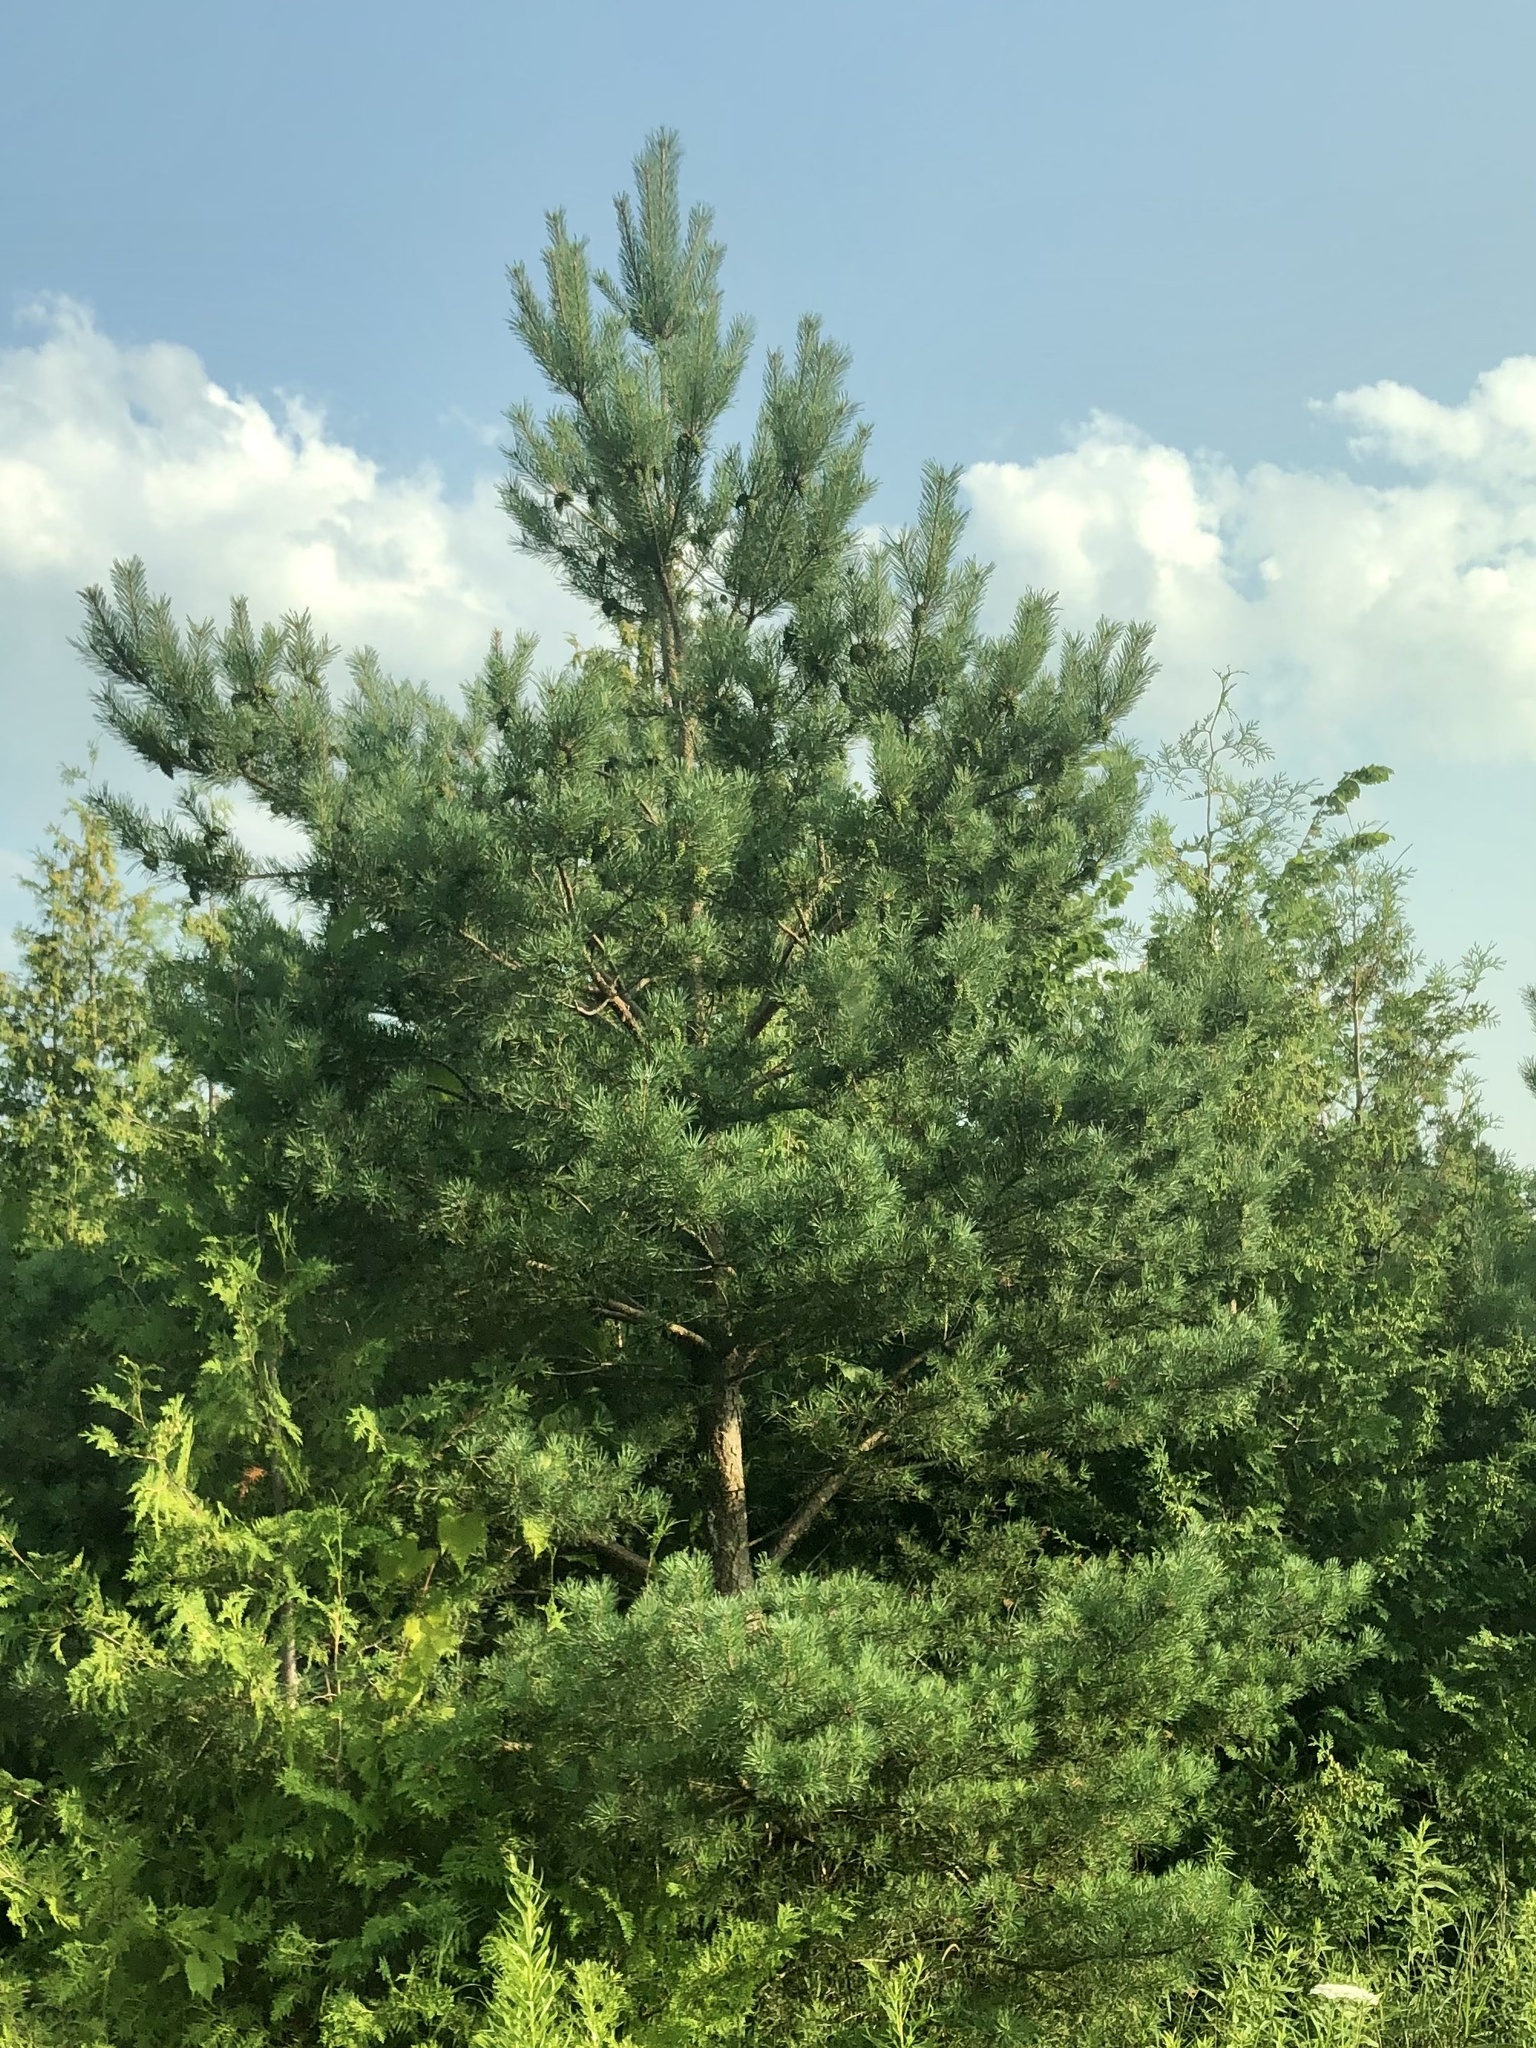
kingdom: Plantae
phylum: Tracheophyta
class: Pinopsida
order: Pinales
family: Pinaceae
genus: Pinus
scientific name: Pinus strobus
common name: Weymouth pine
